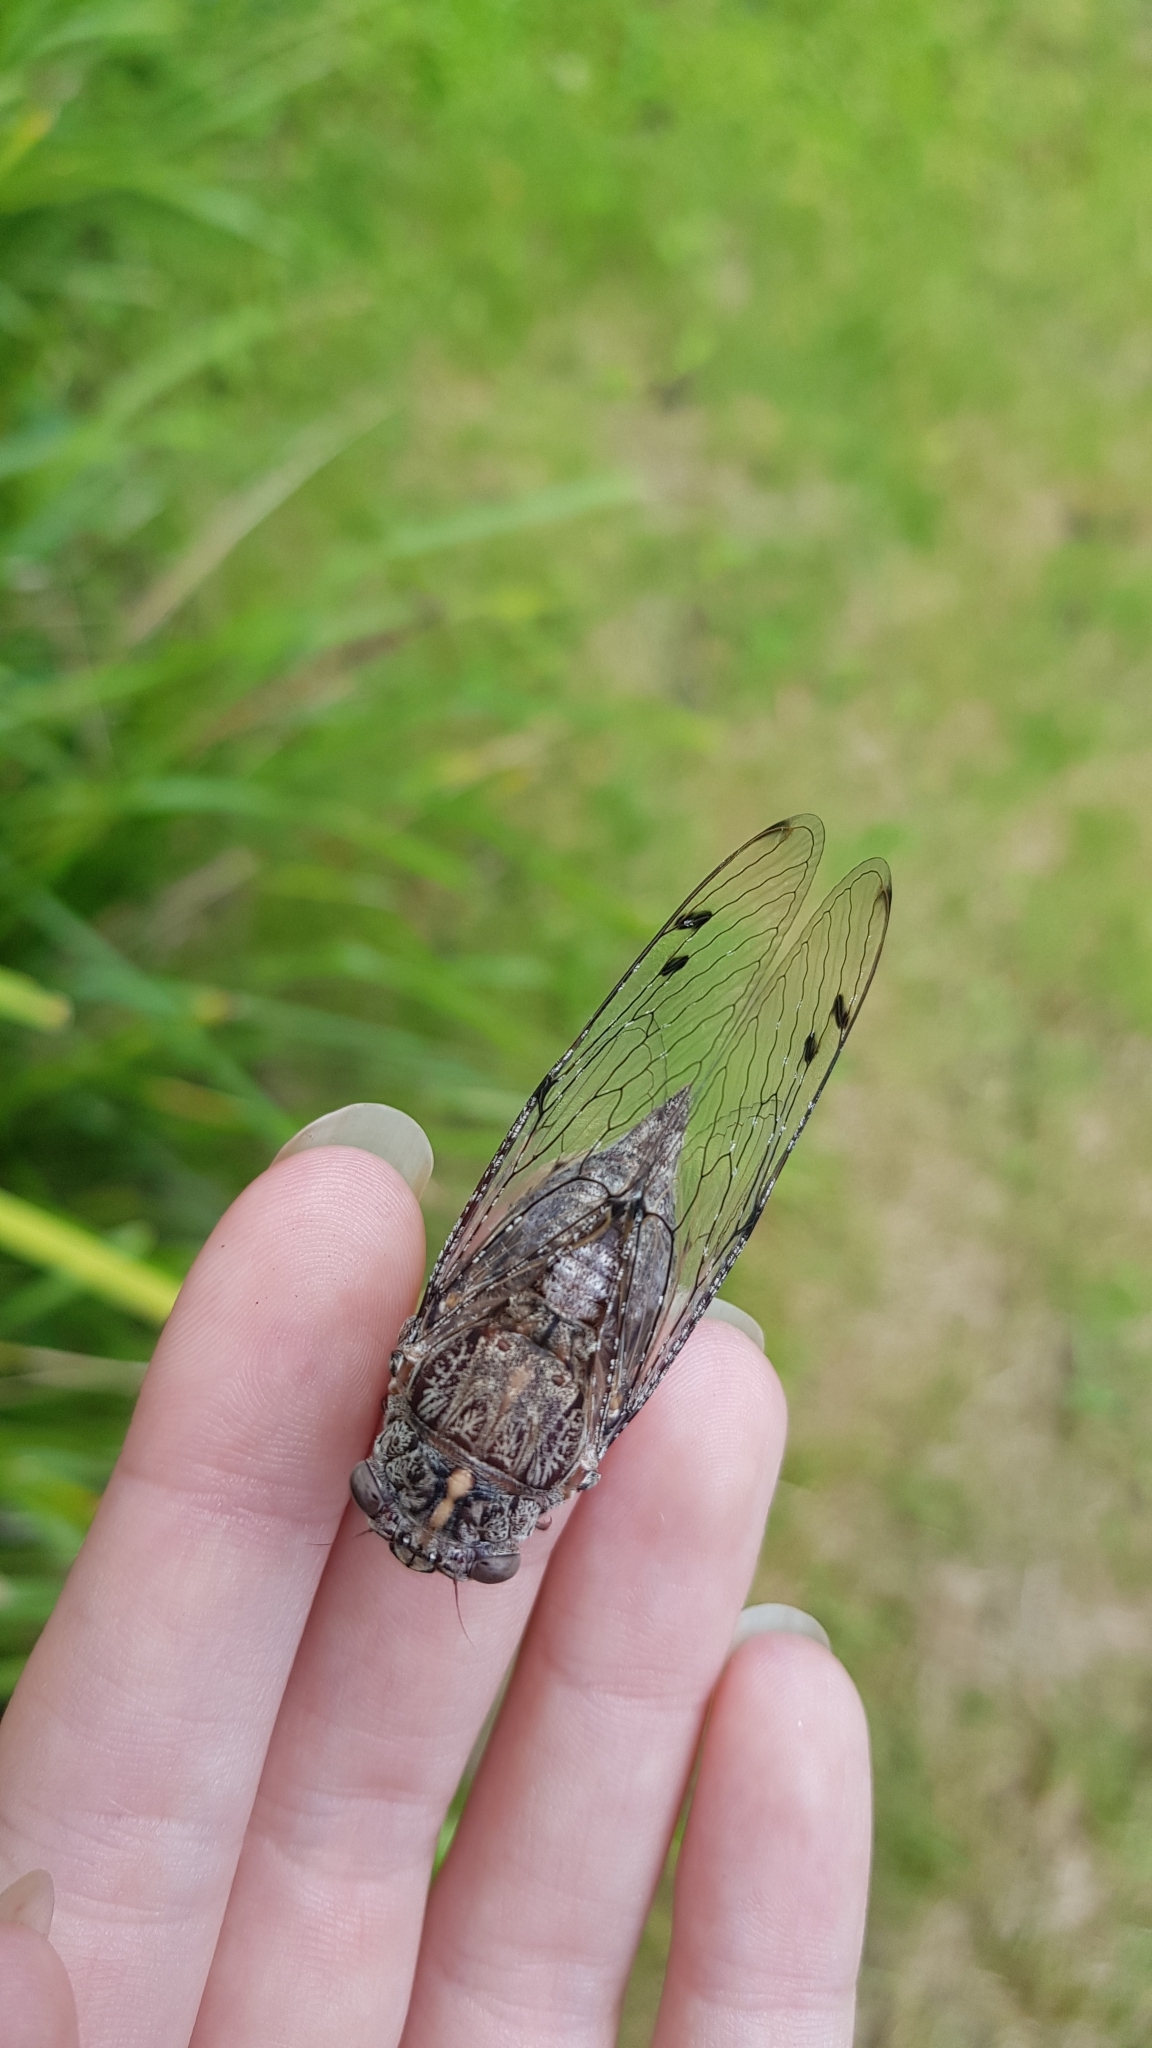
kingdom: Animalia
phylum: Arthropoda
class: Insecta
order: Hemiptera
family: Cicadidae
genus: Aleeta
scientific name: Aleeta curvicosta
